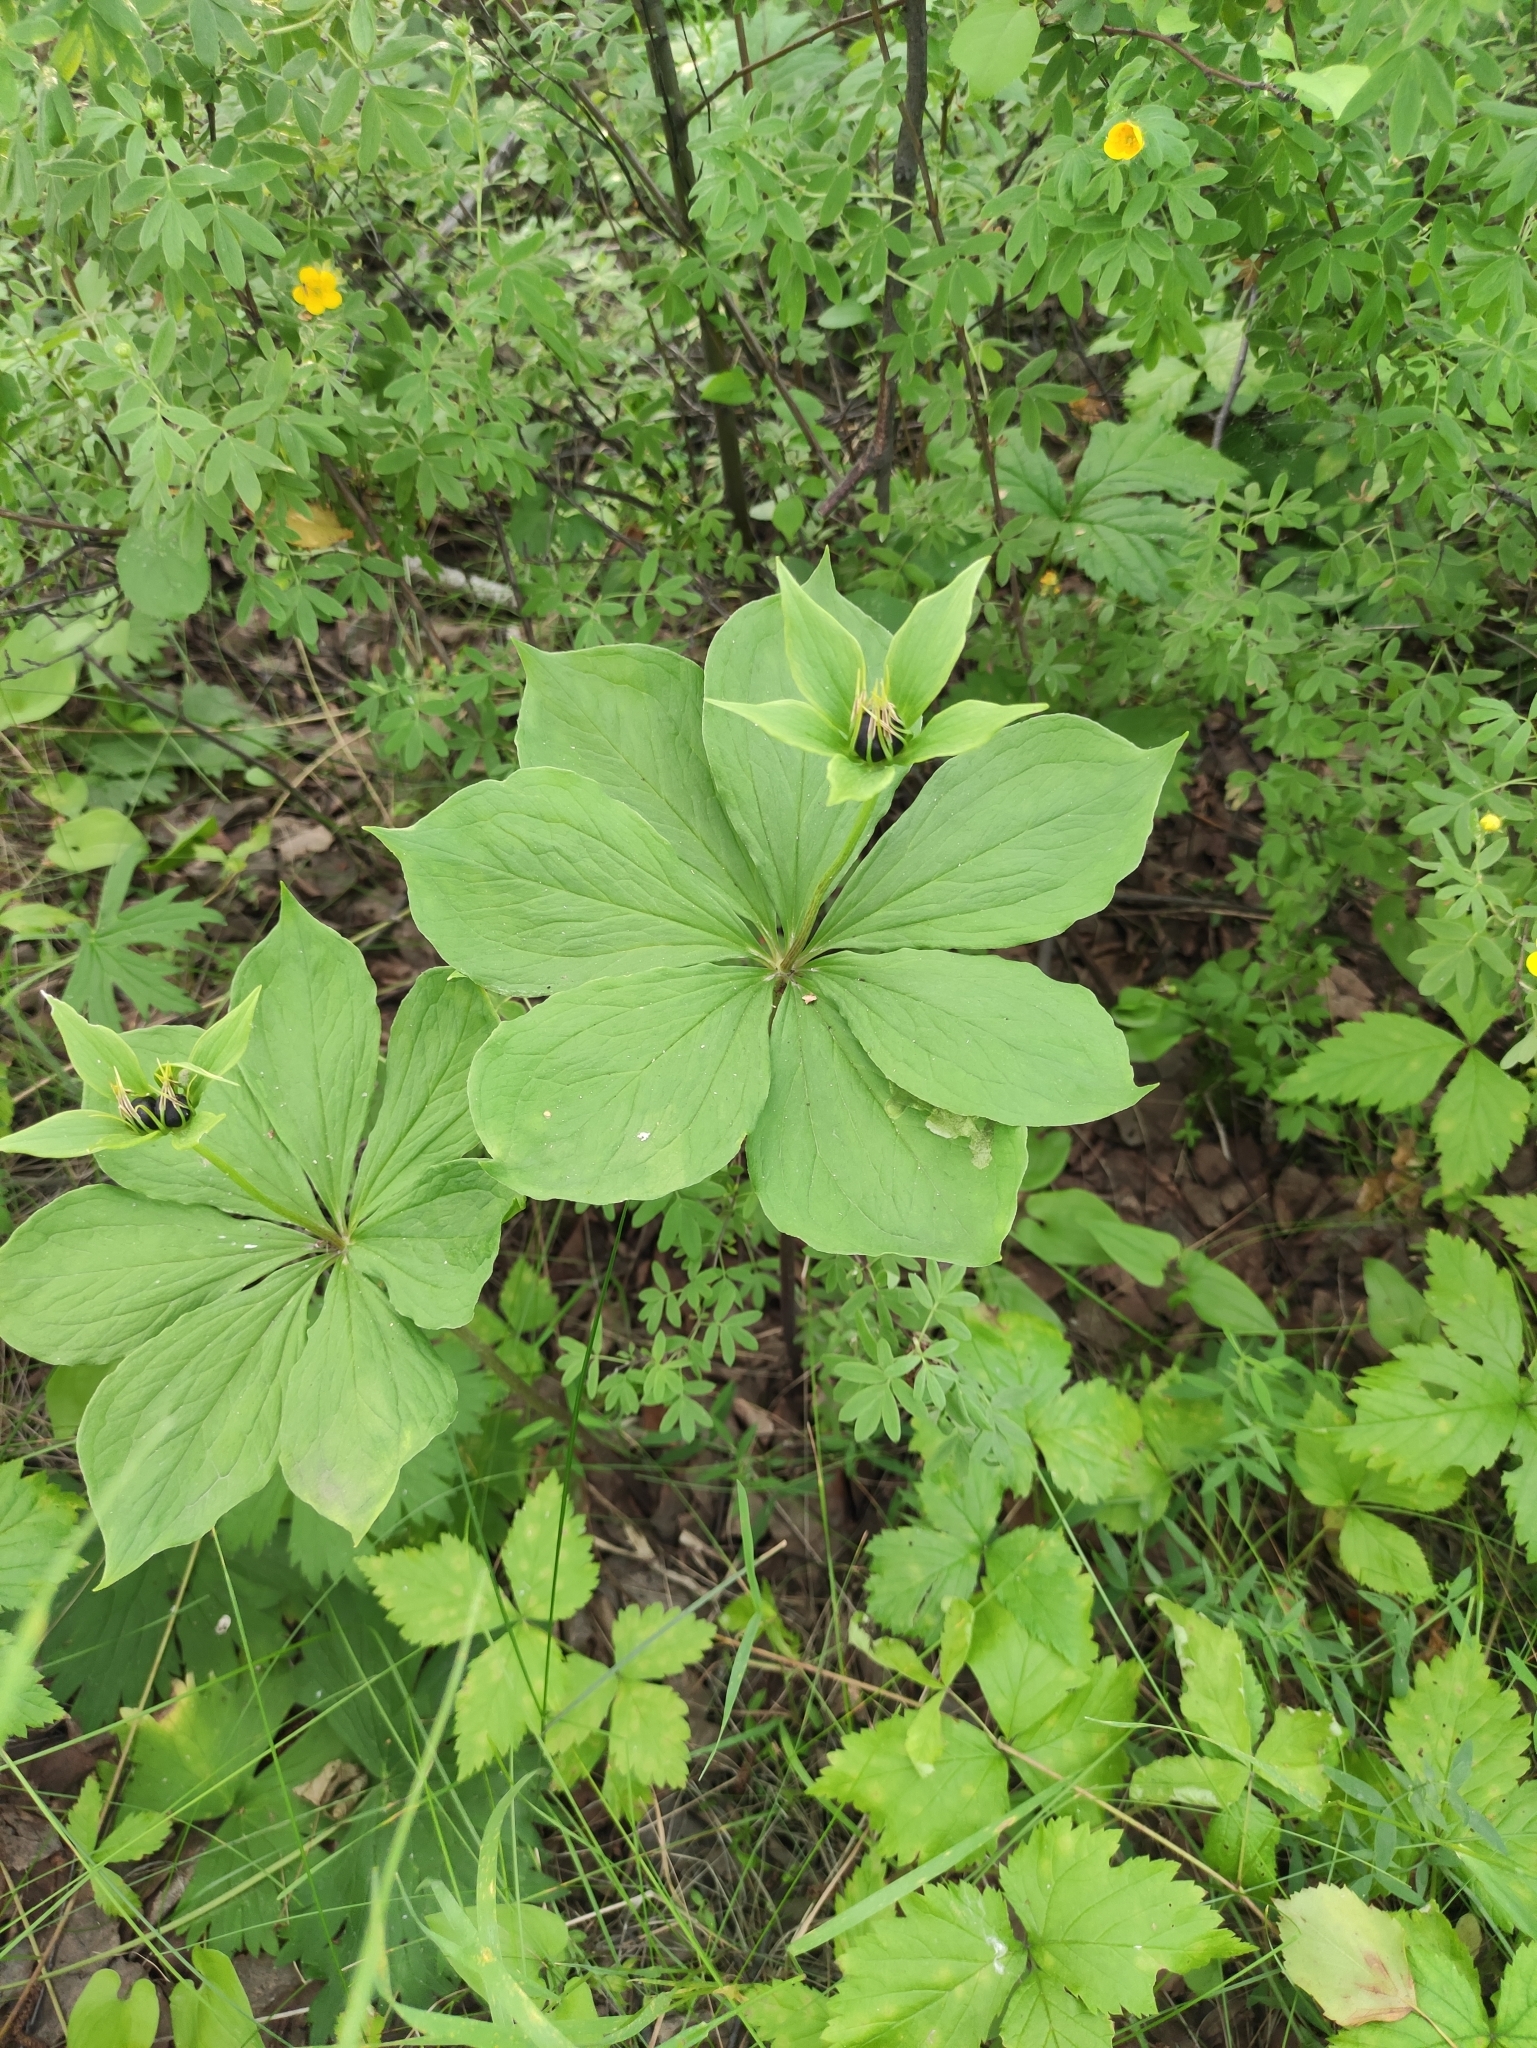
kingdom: Plantae
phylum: Tracheophyta
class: Liliopsida
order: Liliales
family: Melanthiaceae
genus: Paris
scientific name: Paris verticillata
